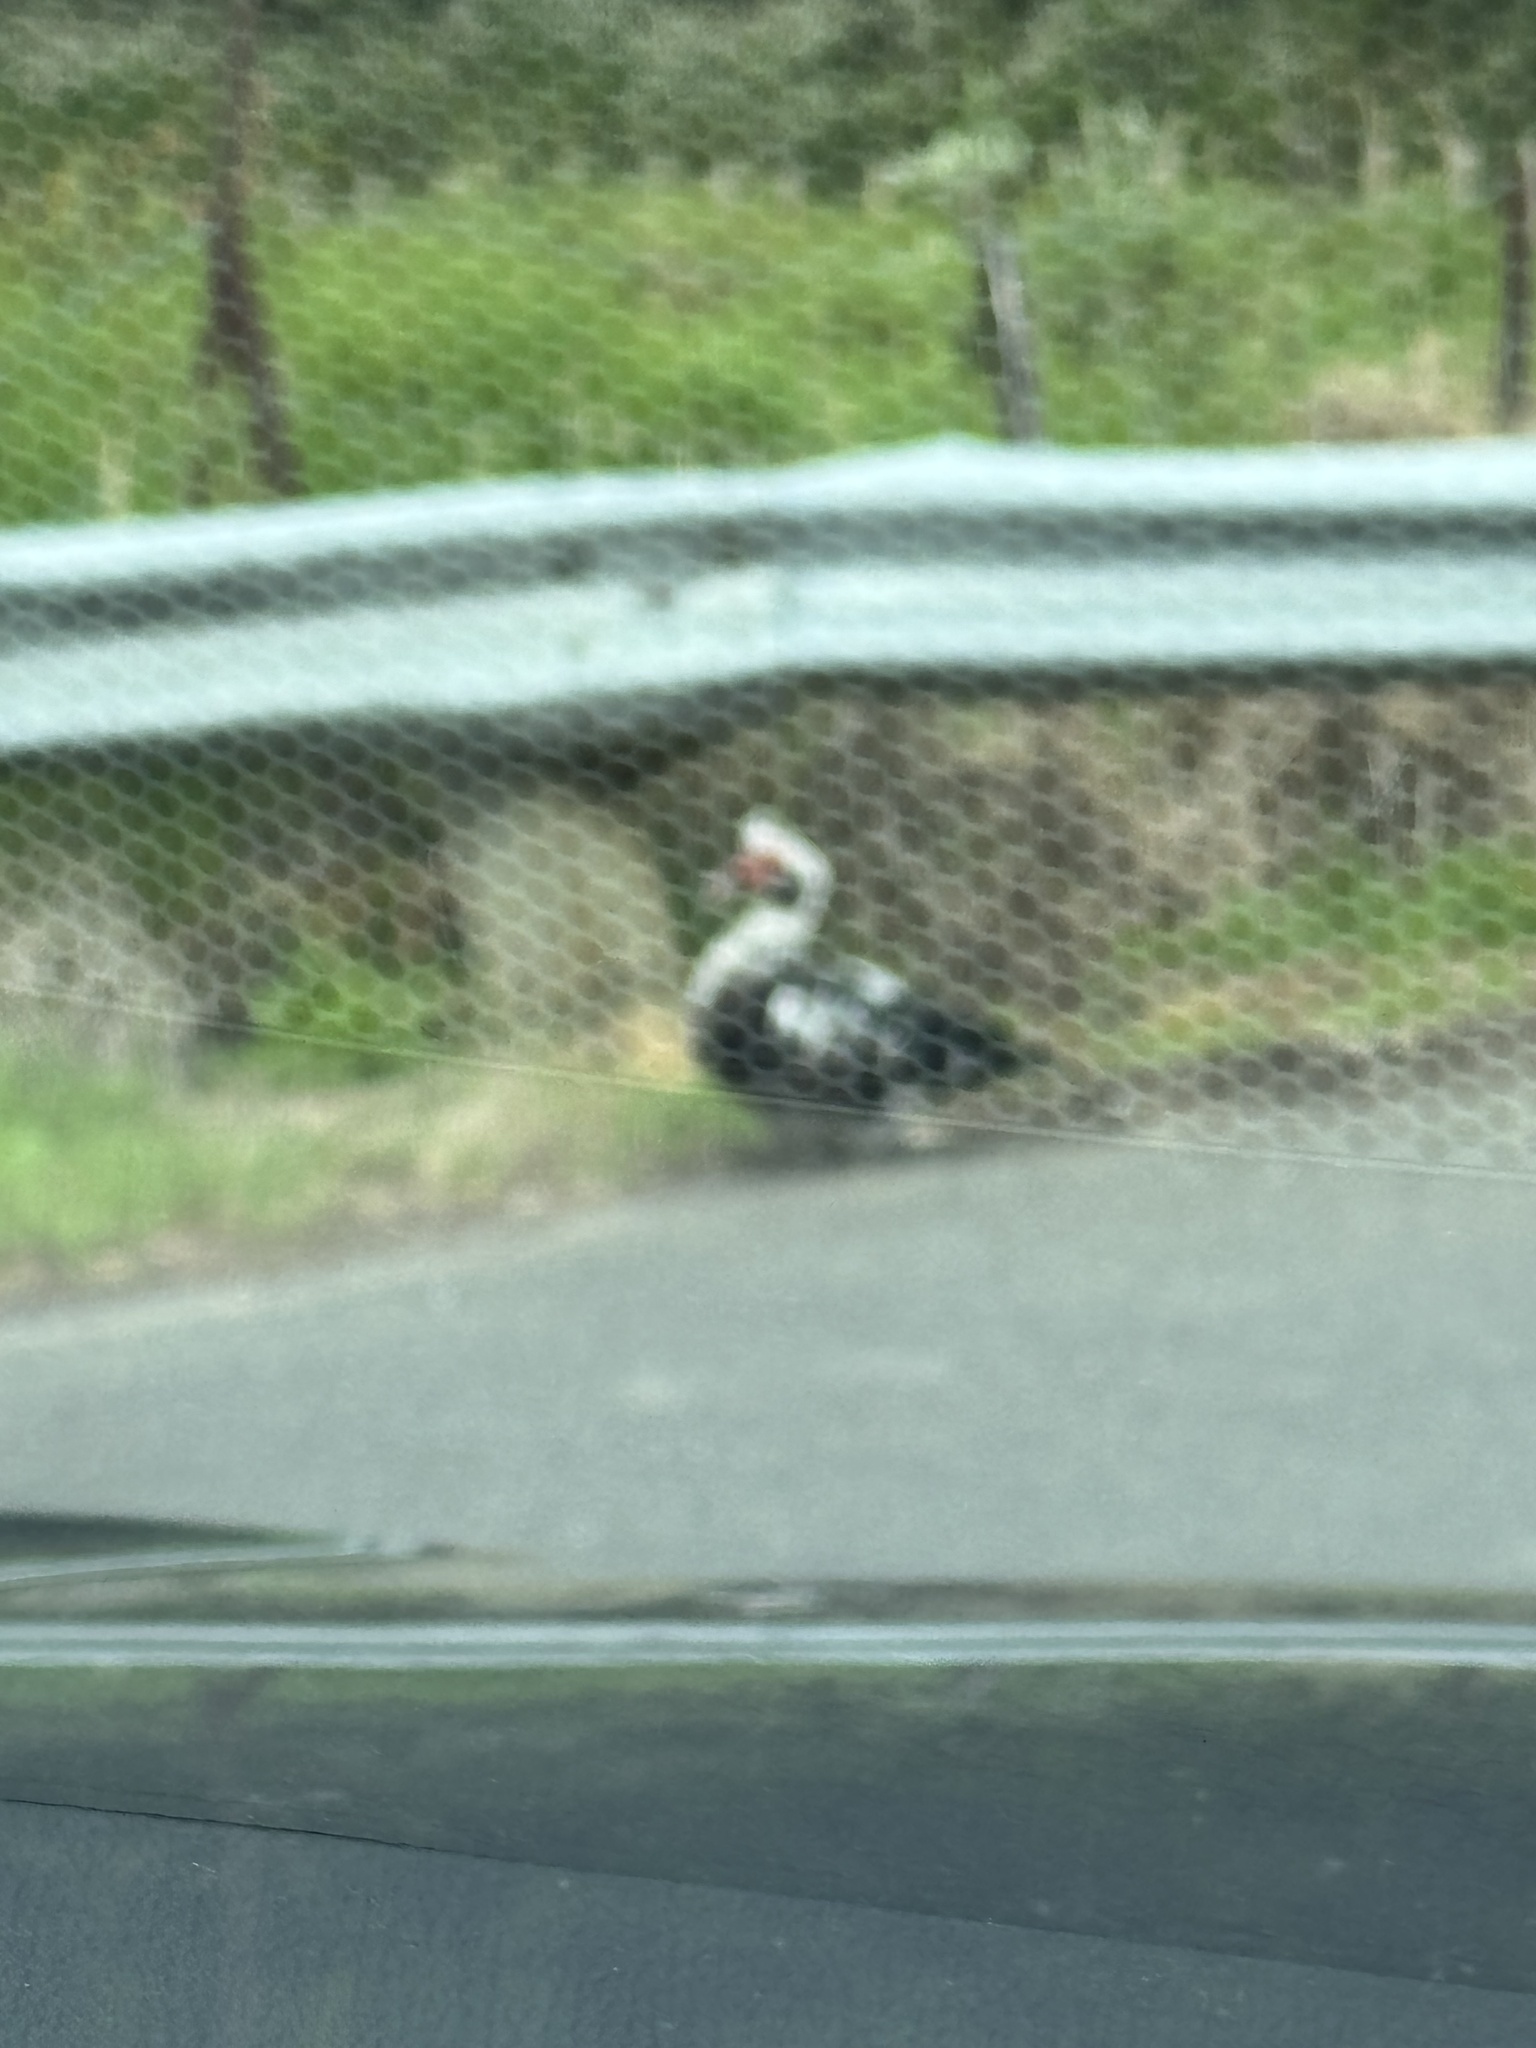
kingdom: Animalia
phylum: Chordata
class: Aves
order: Anseriformes
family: Anatidae
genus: Cairina
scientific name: Cairina moschata
